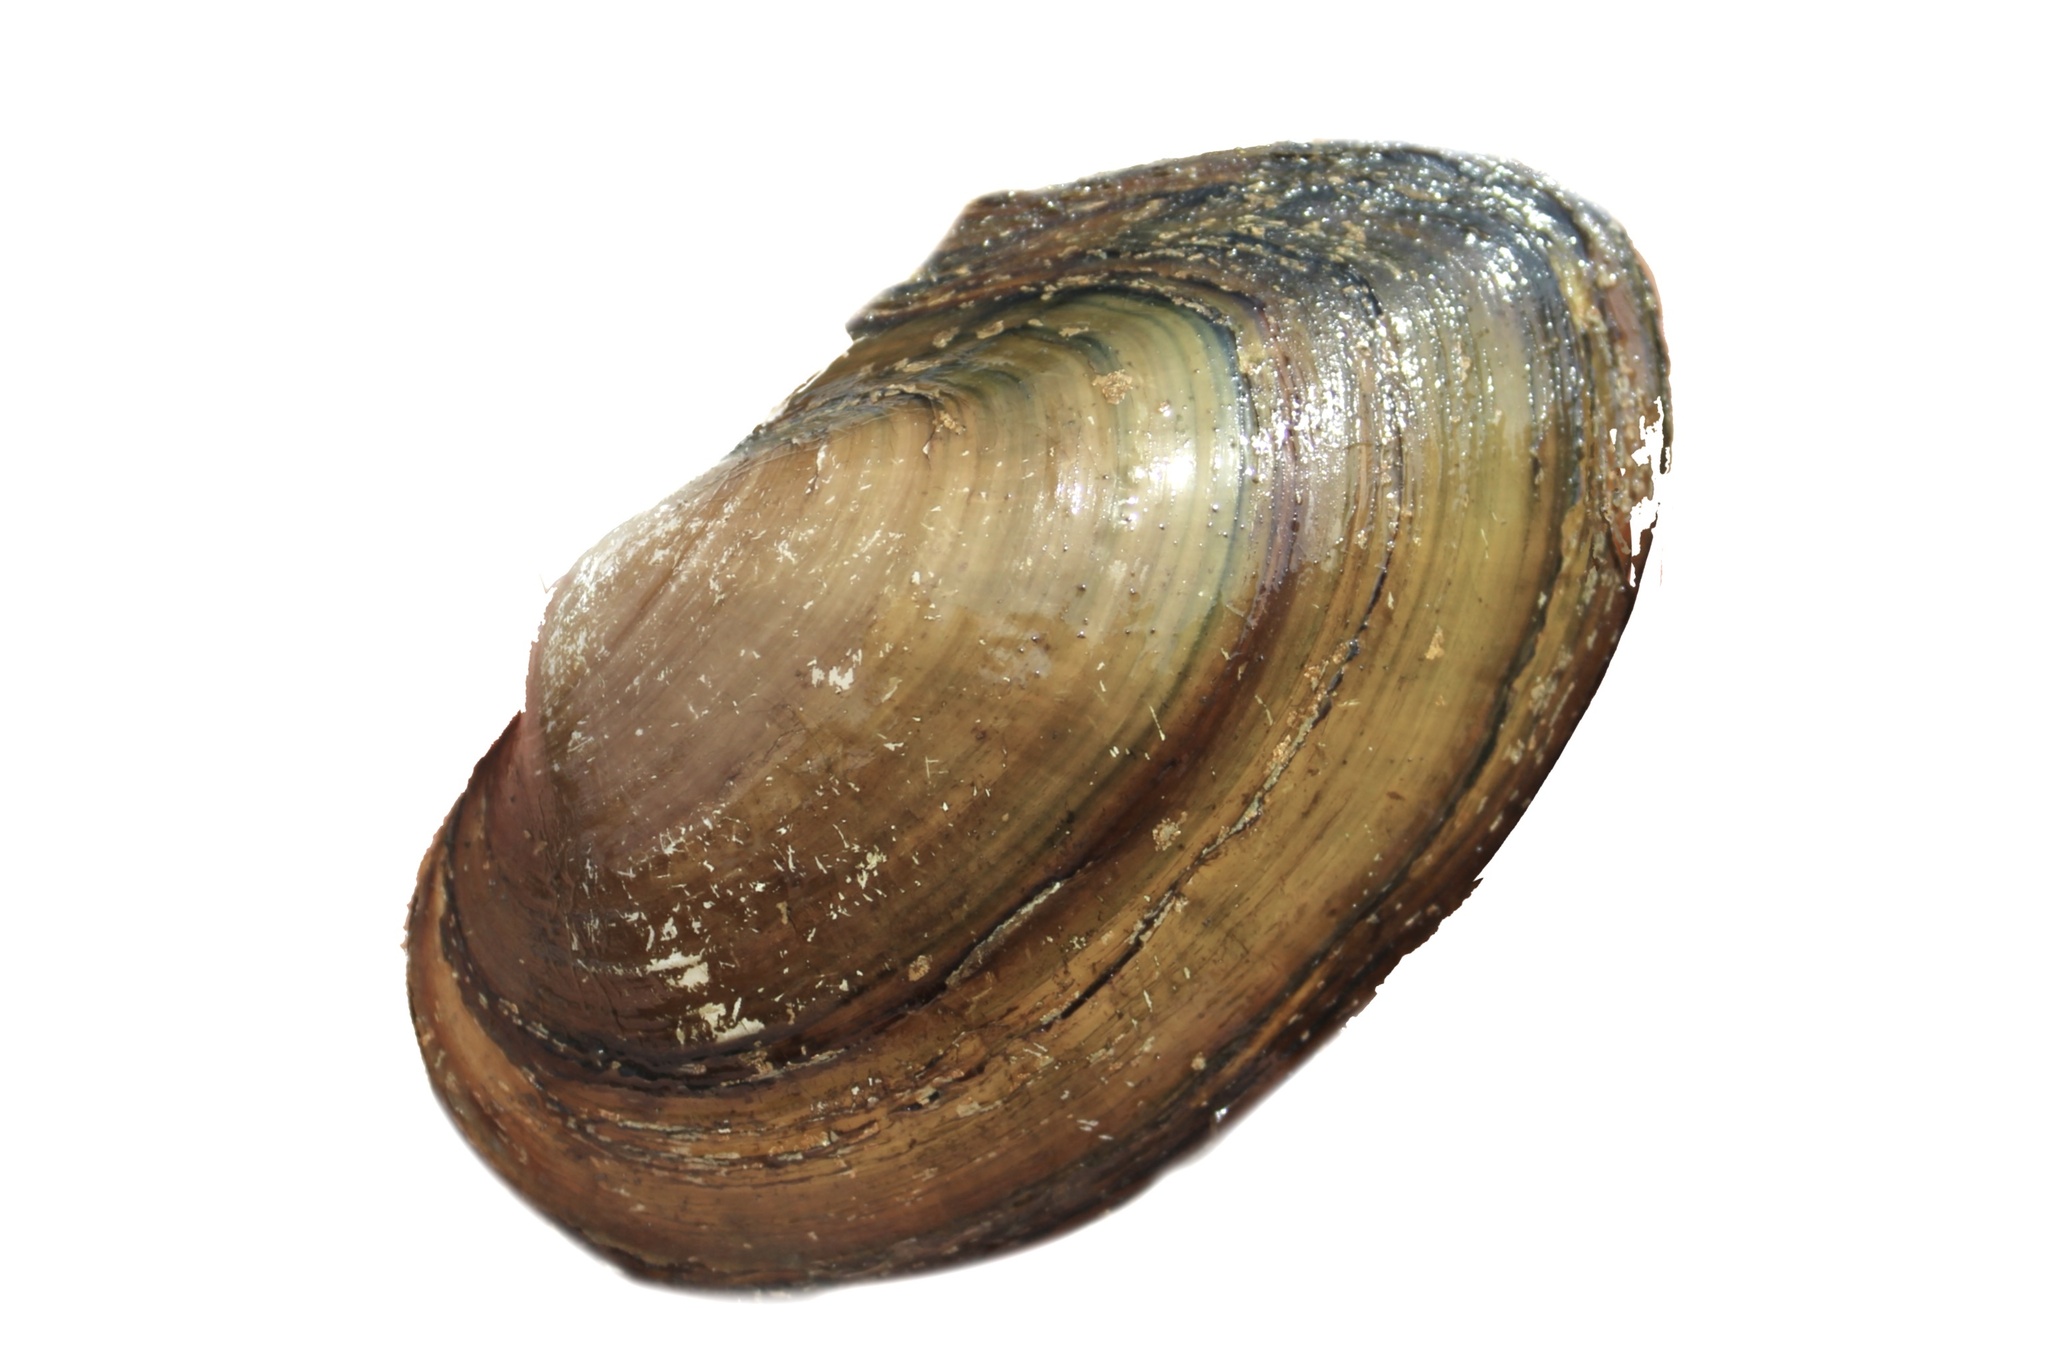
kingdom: Animalia
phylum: Mollusca
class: Bivalvia
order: Unionida
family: Unionidae
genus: Pyganodon
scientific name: Pyganodon grandis
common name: Giant floater
